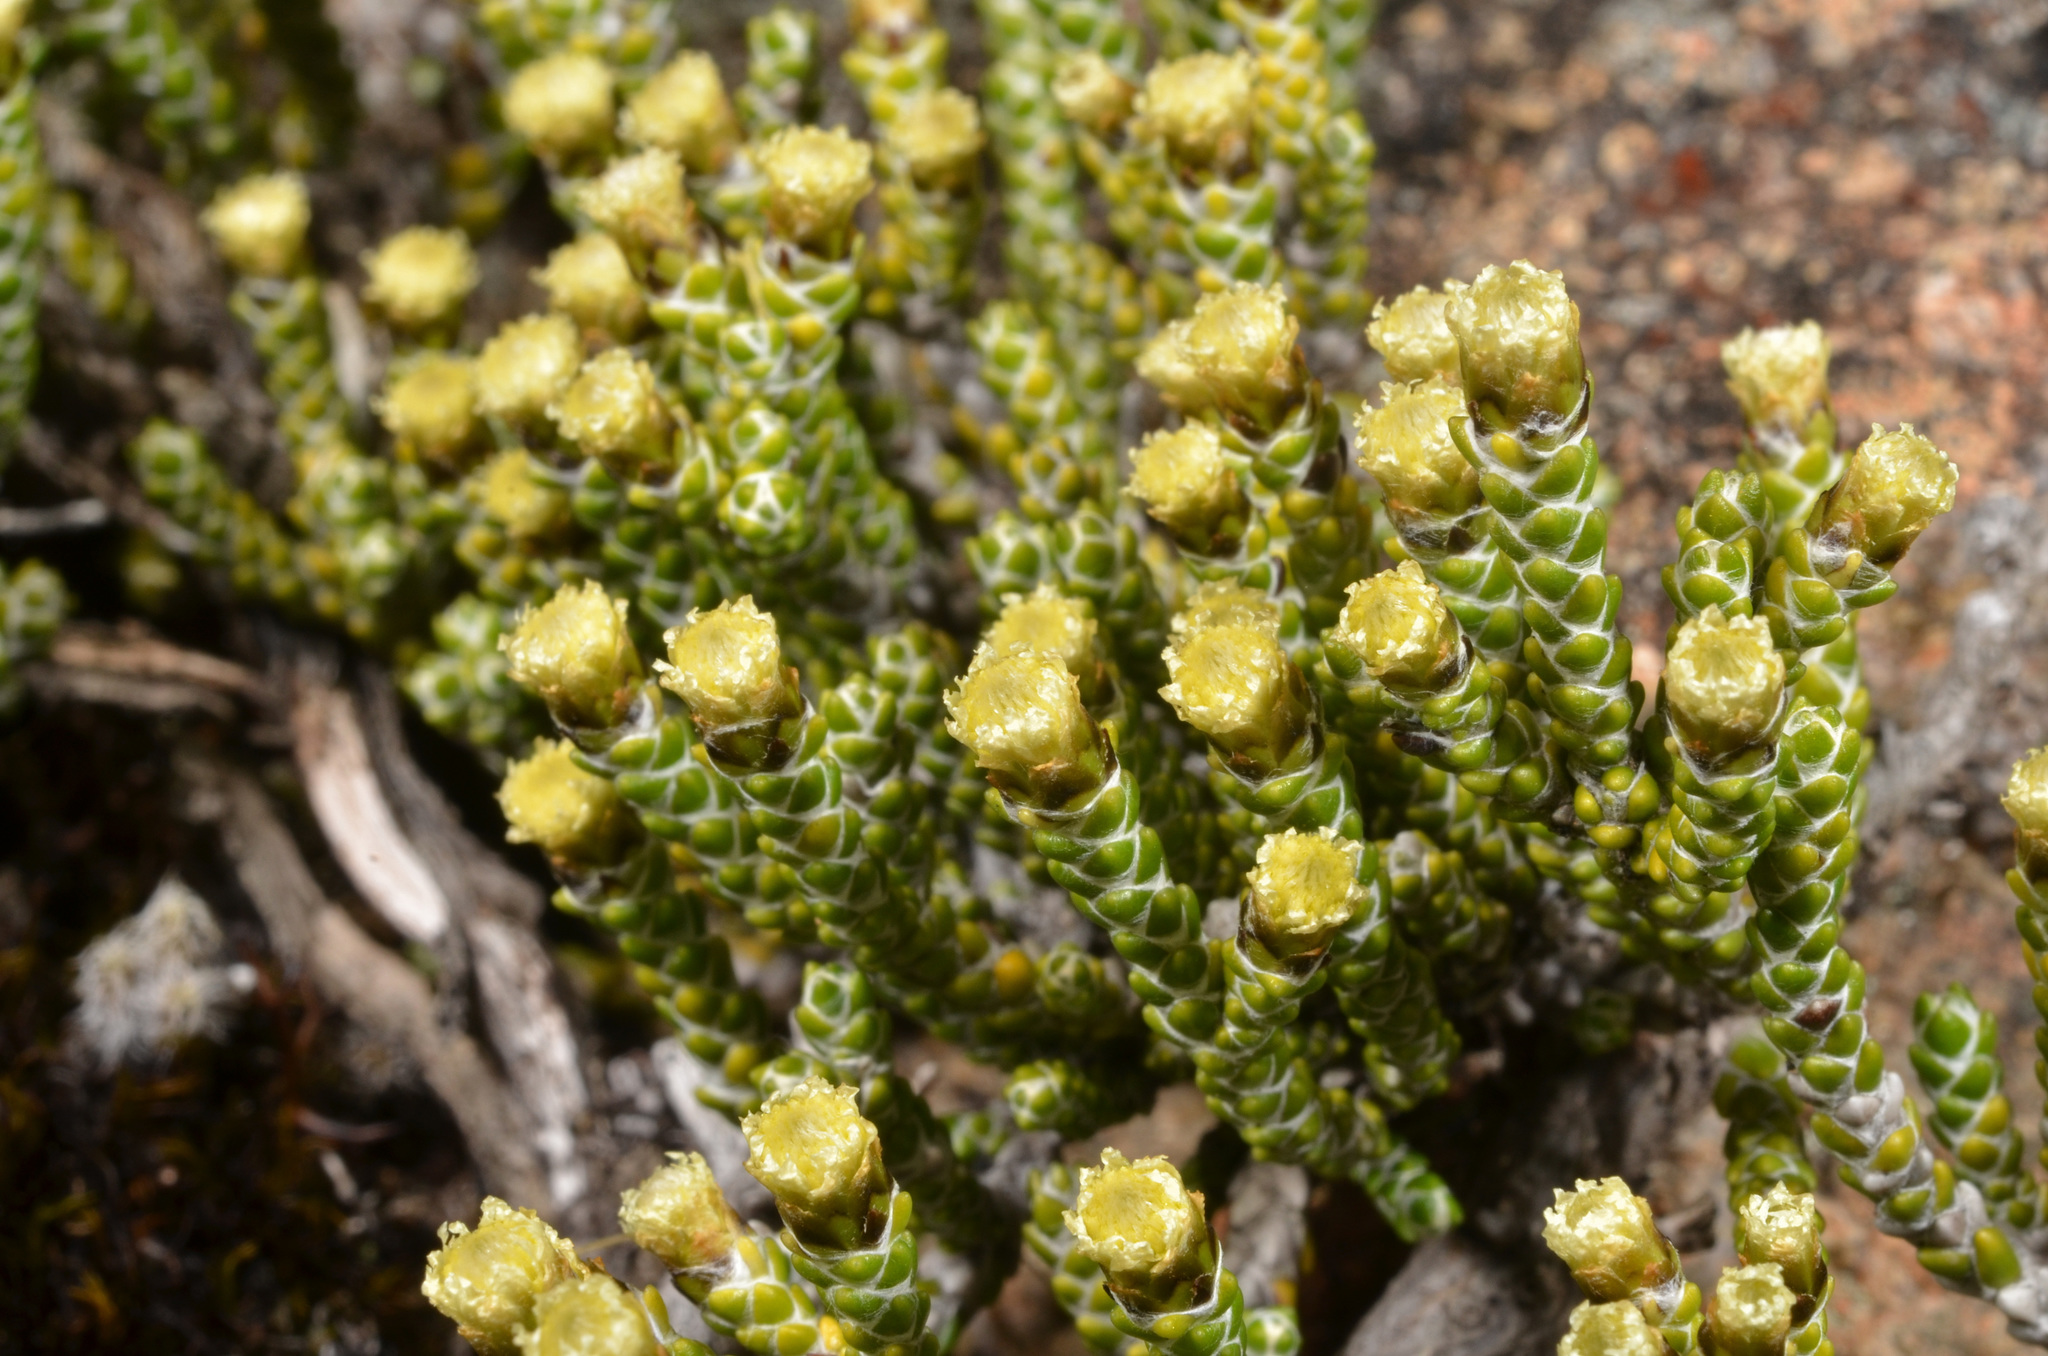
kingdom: Plantae
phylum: Tracheophyta
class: Magnoliopsida
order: Asterales
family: Asteraceae
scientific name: Asteraceae
